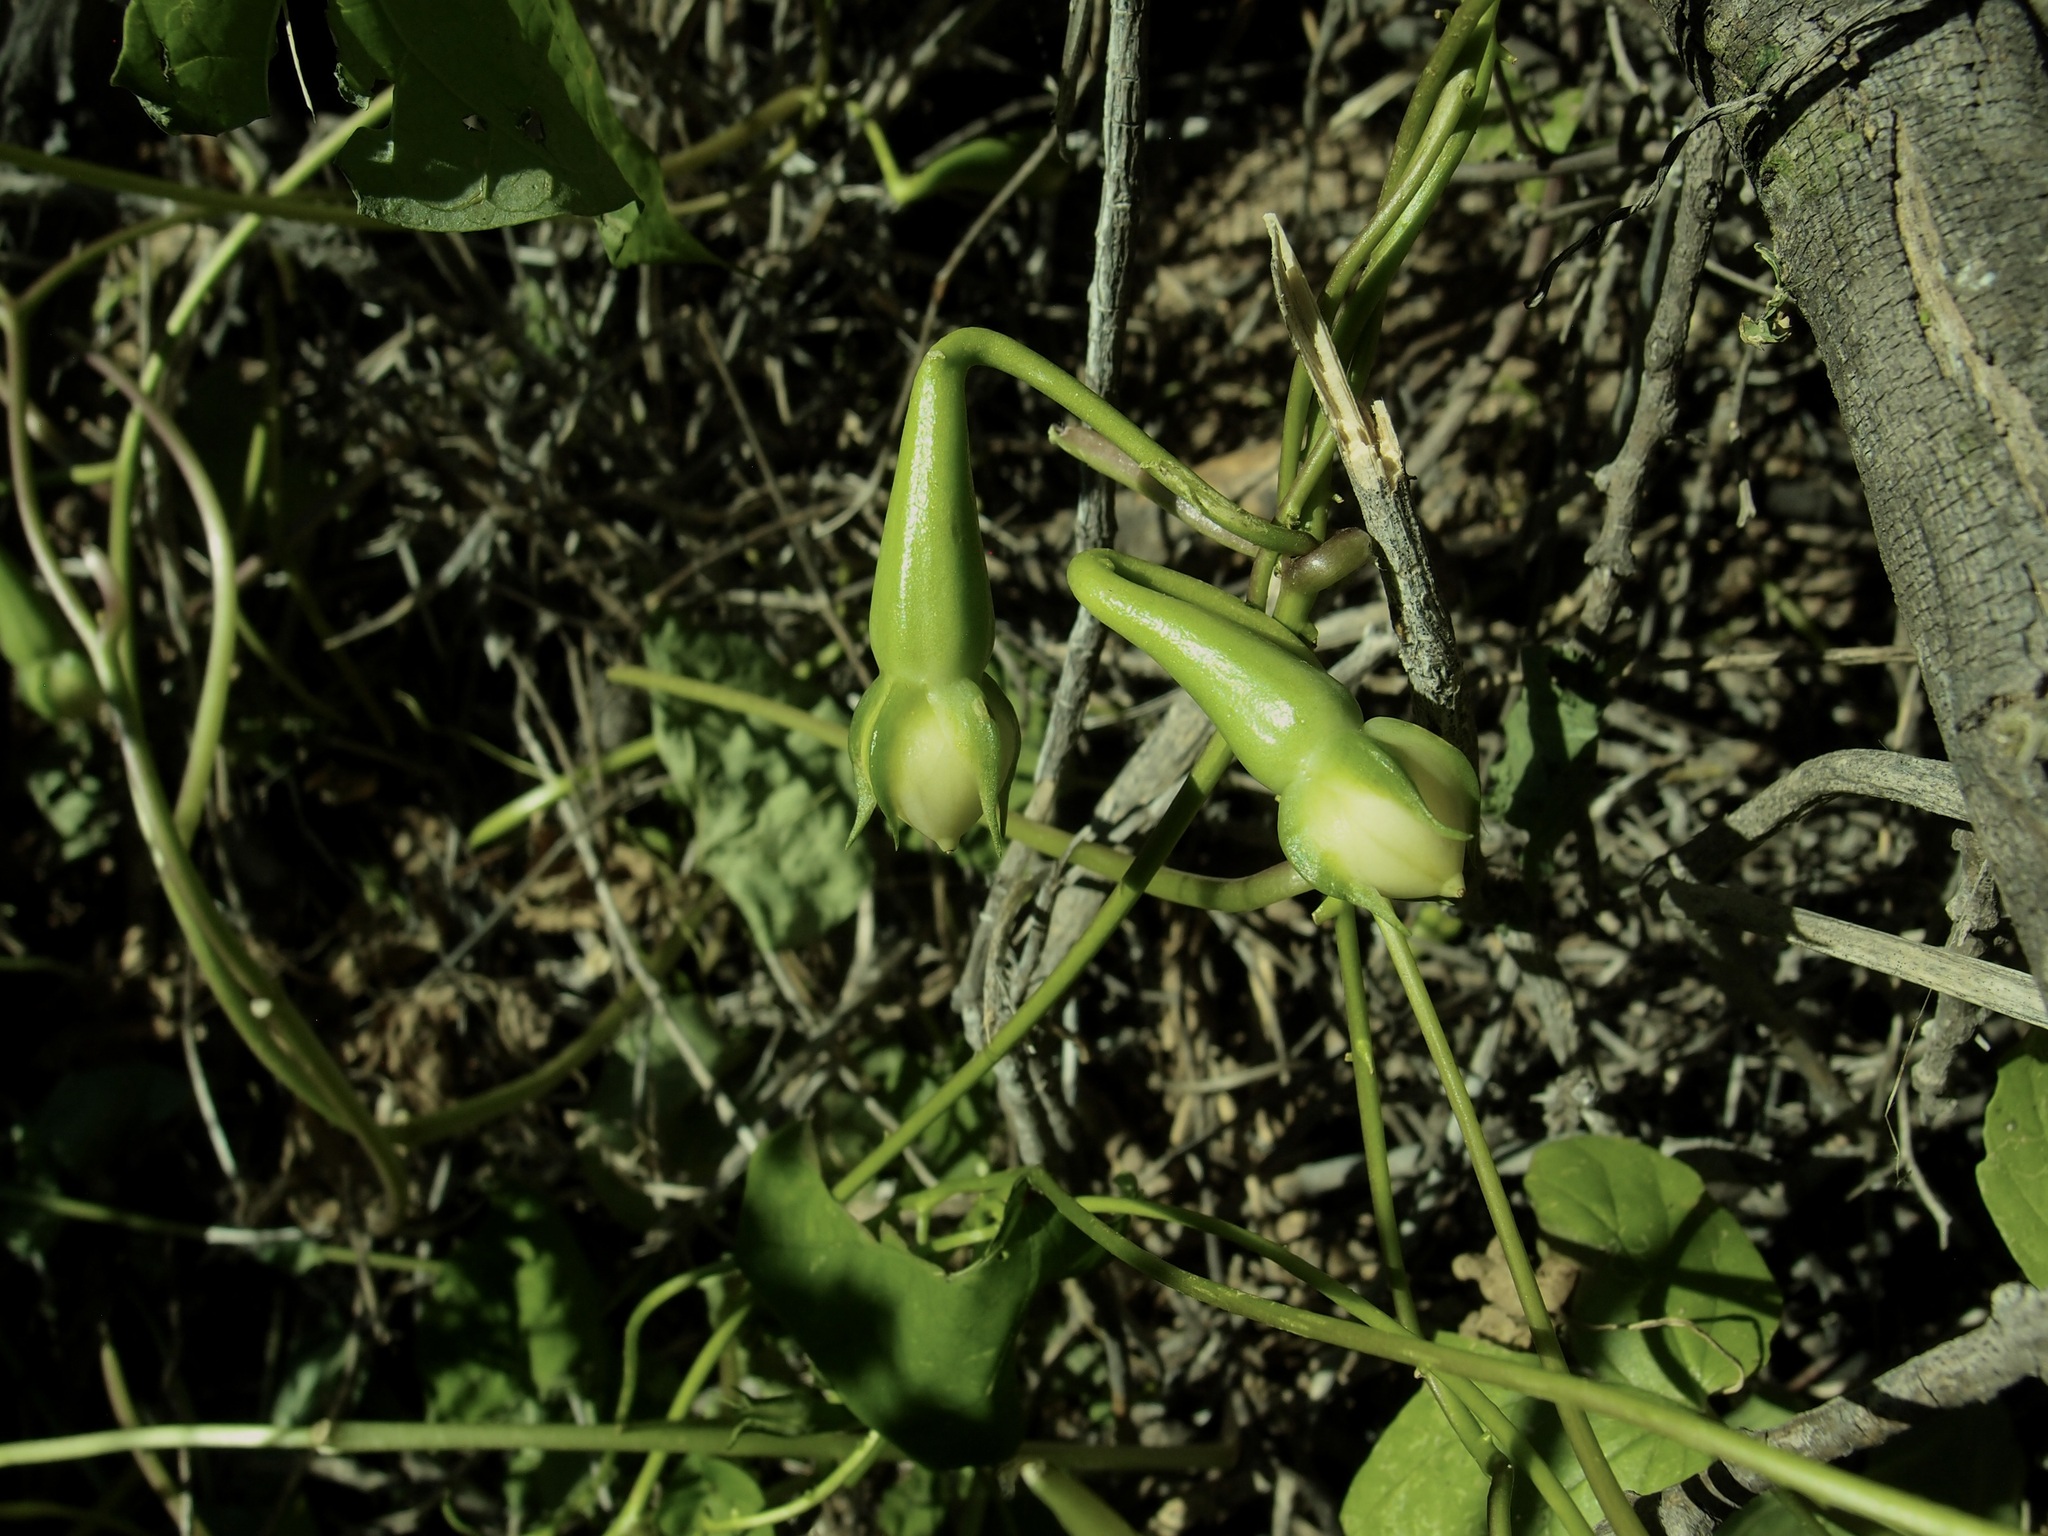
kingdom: Plantae
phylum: Tracheophyta
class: Magnoliopsida
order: Solanales
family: Convolvulaceae
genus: Ipomoea
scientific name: Ipomoea muricata
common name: Lilac-bell
